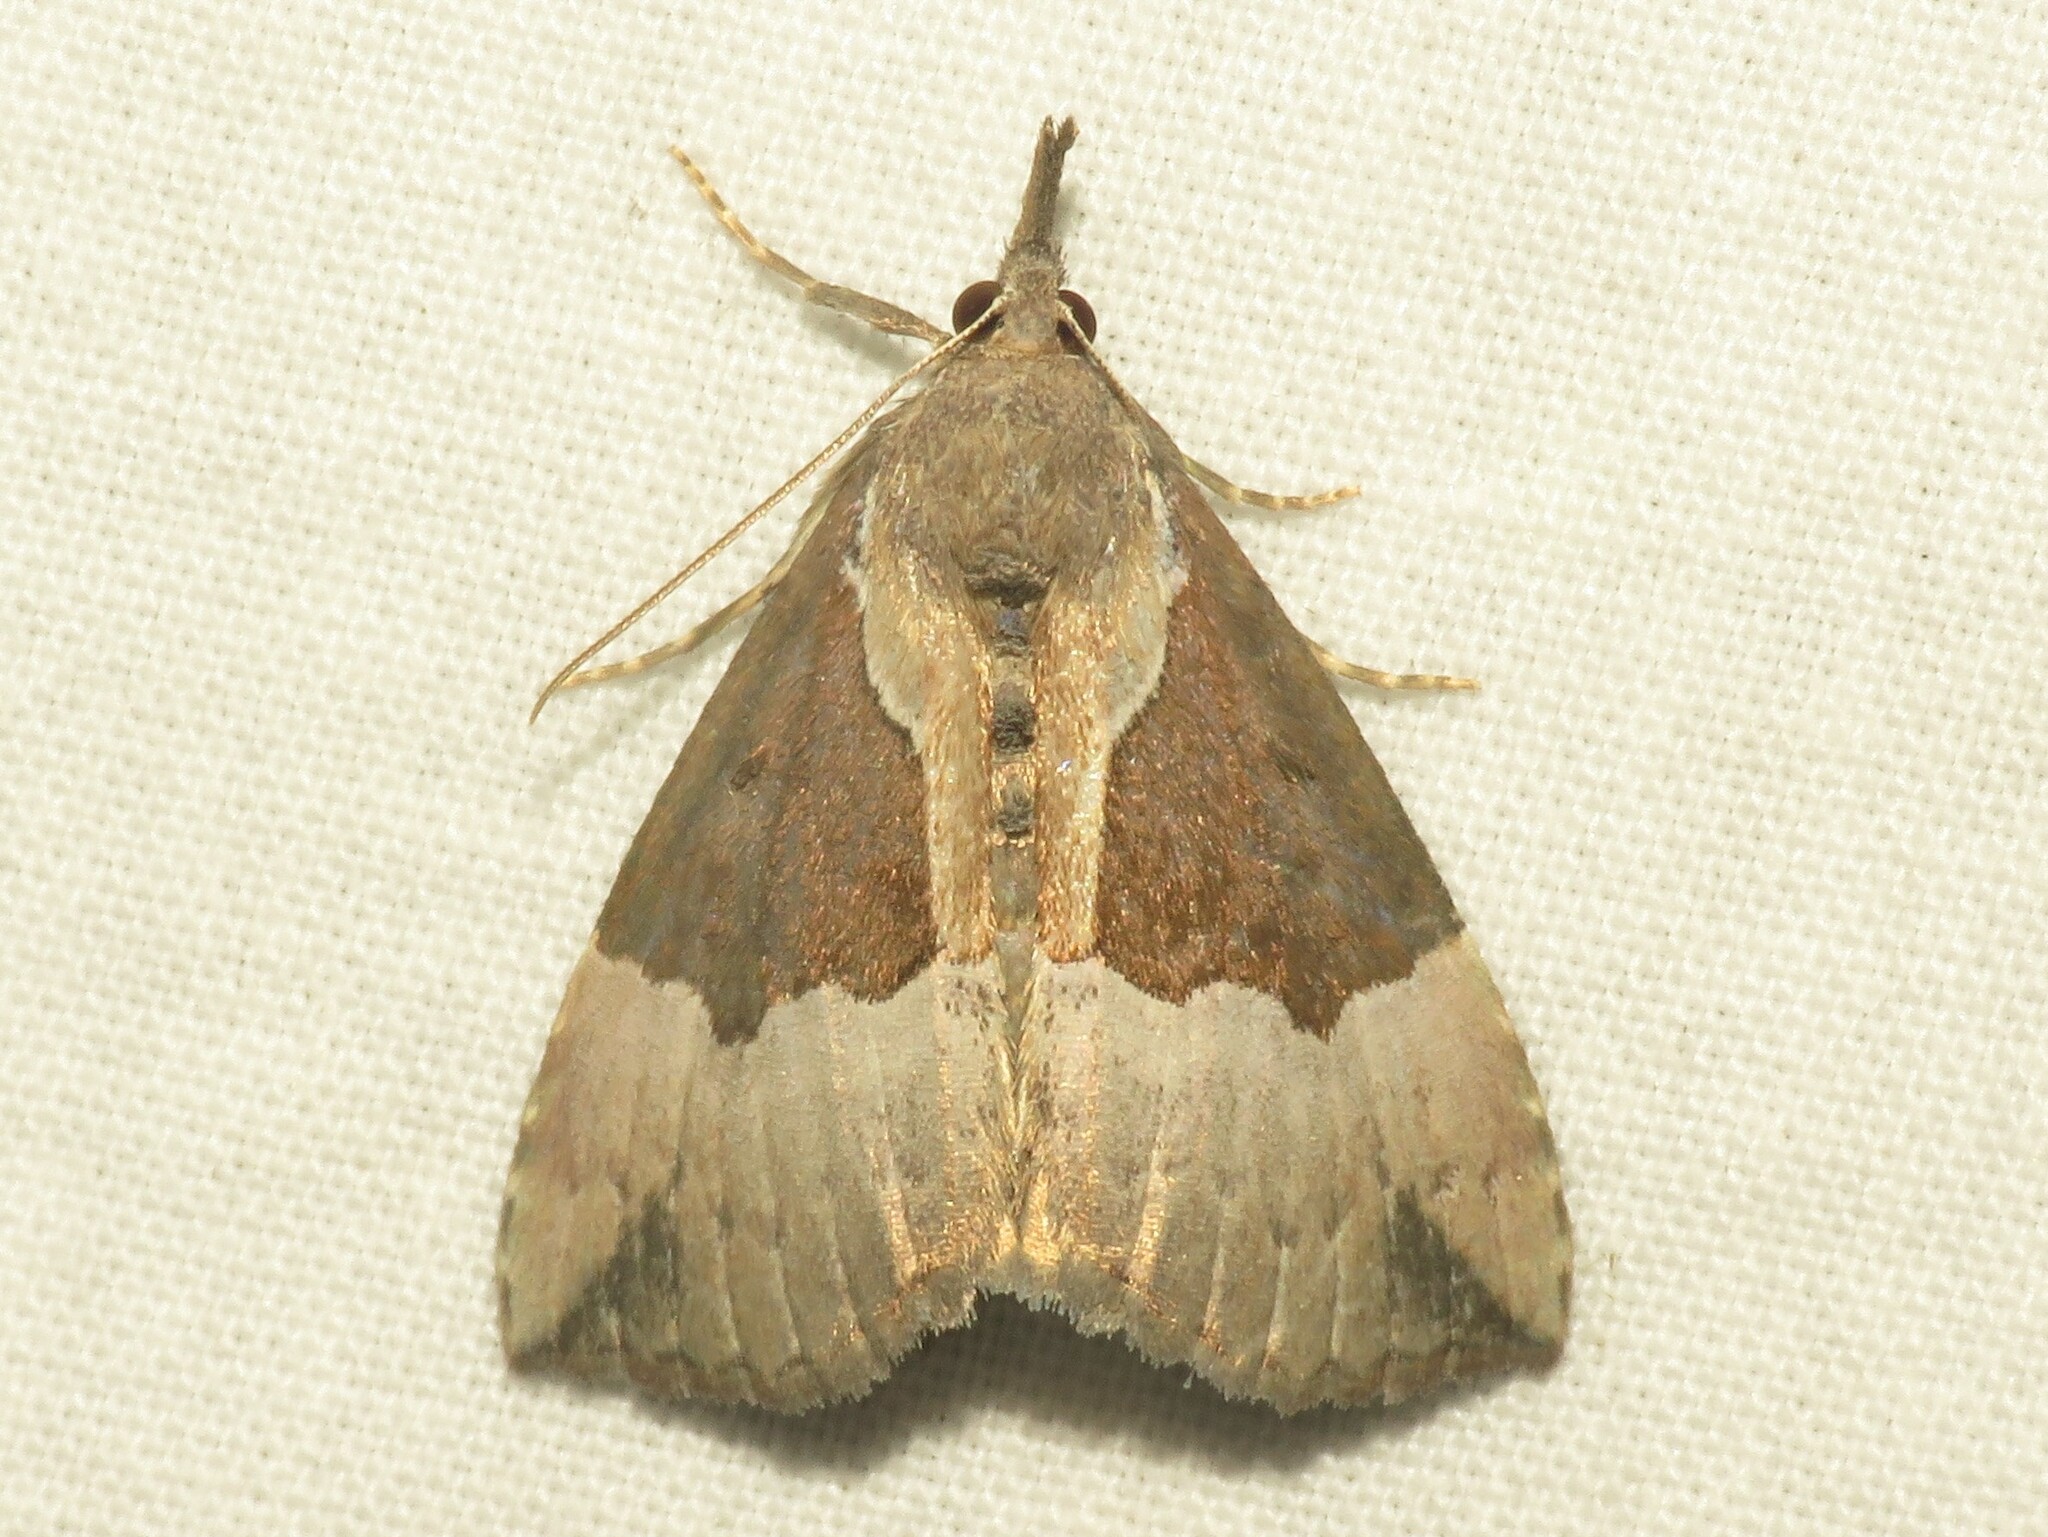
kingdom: Animalia
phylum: Arthropoda
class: Insecta
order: Lepidoptera
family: Erebidae
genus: Hypena
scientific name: Hypena bijugalis
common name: Dimorphic bomolocha moth
